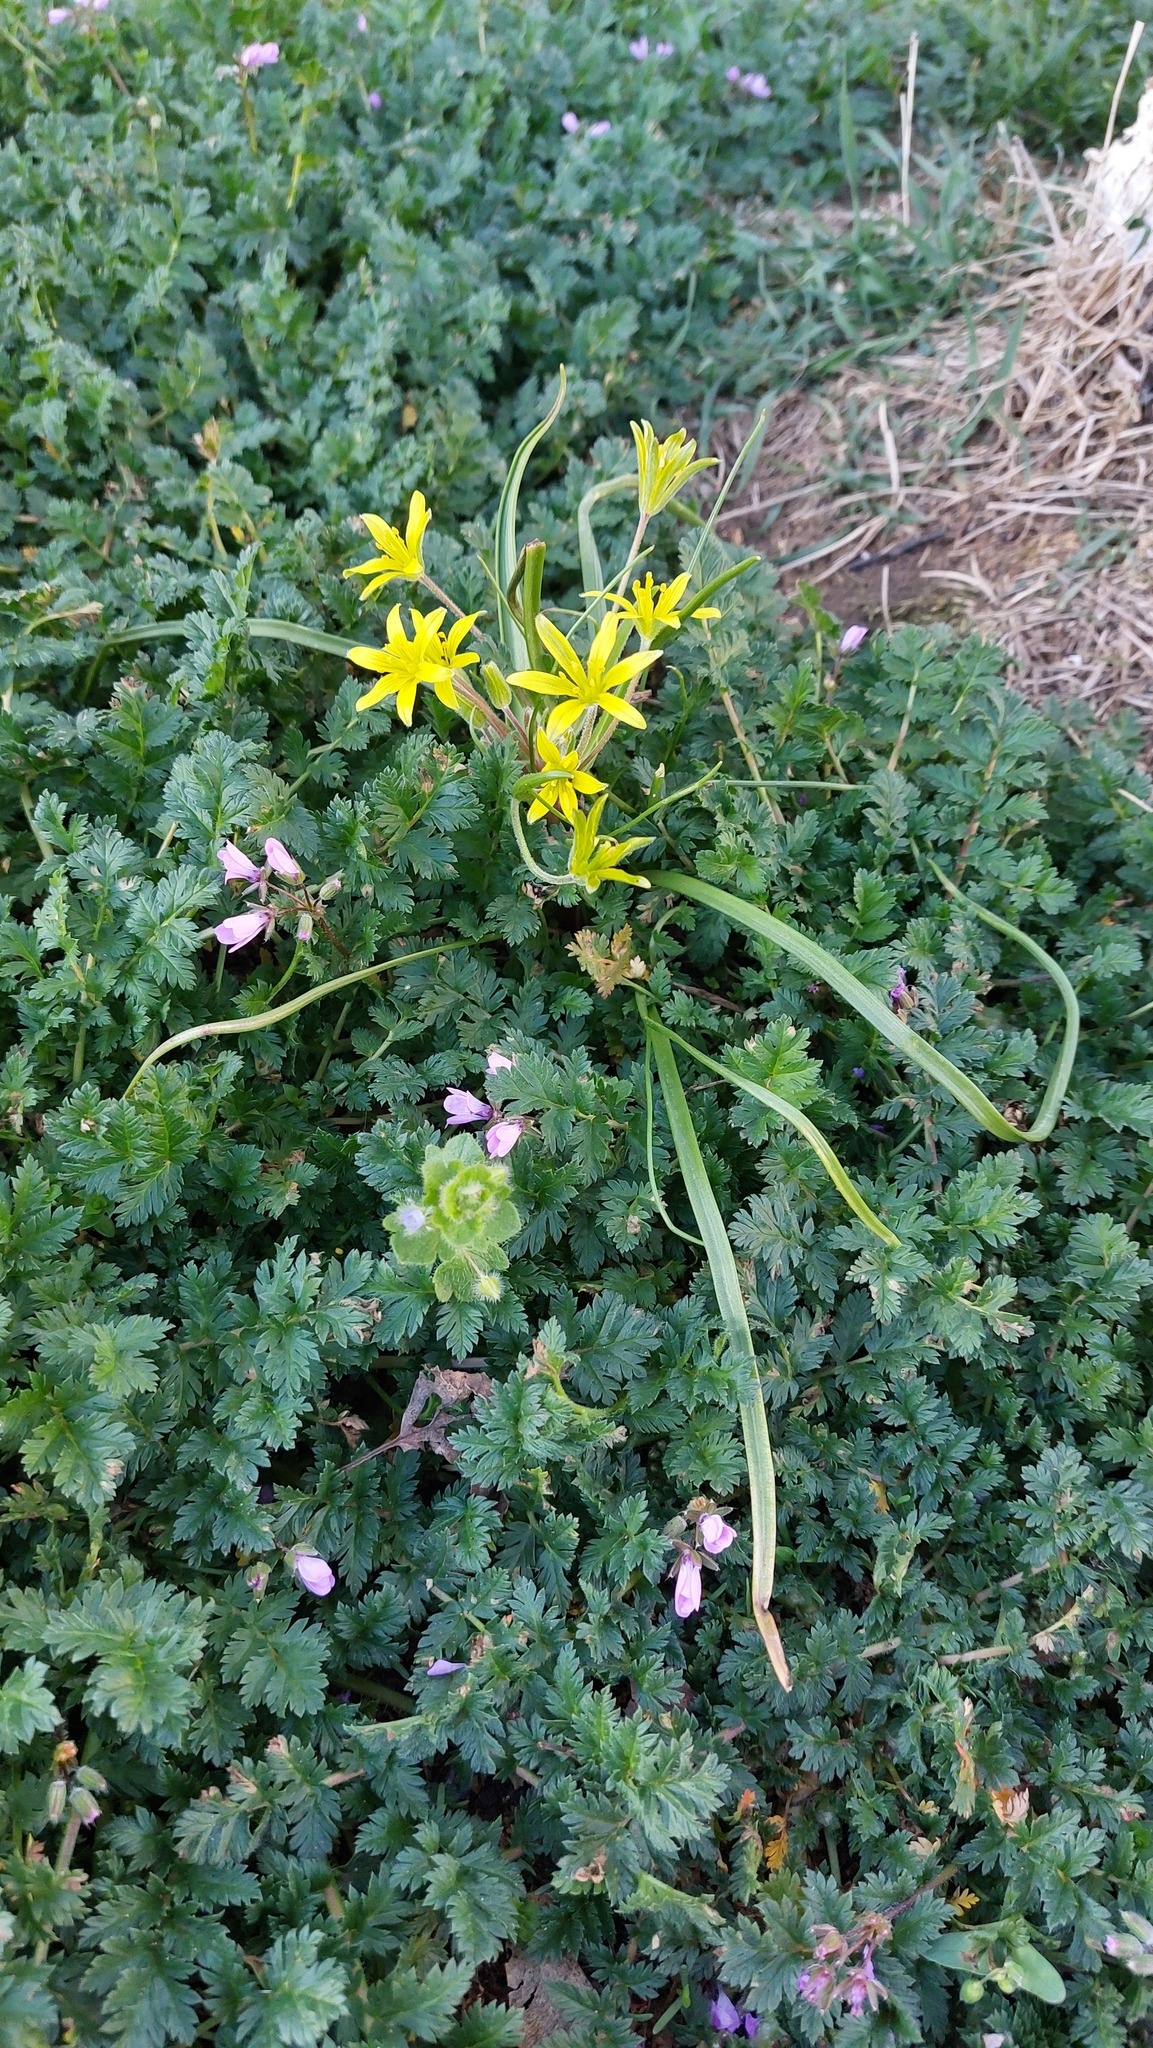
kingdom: Plantae
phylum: Tracheophyta
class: Liliopsida
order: Liliales
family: Liliaceae
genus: Gagea
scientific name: Gagea villosa
